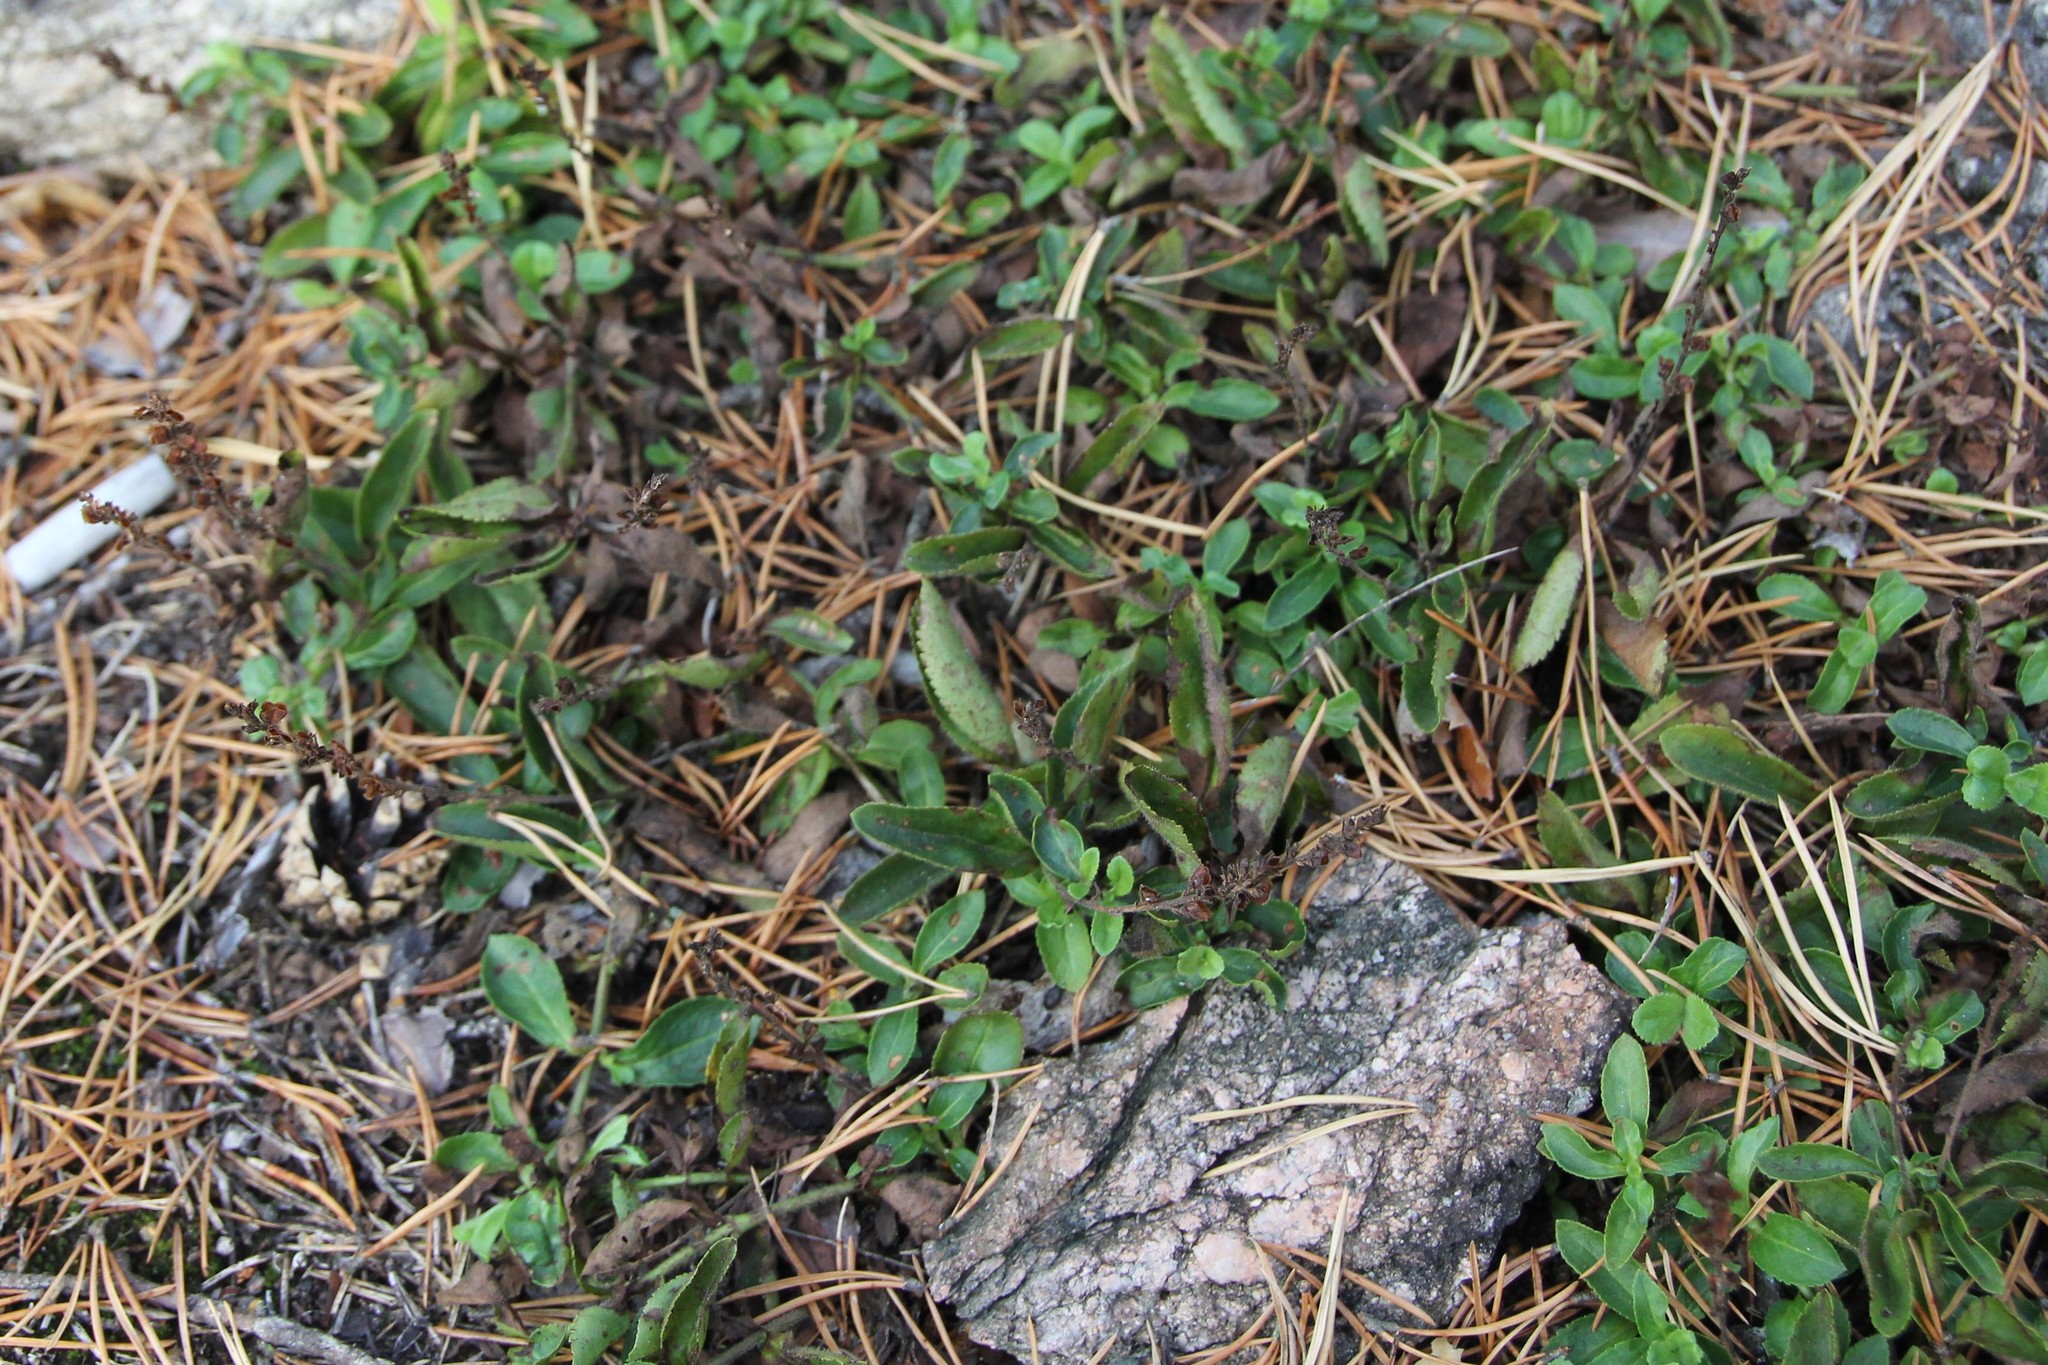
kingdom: Plantae
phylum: Tracheophyta
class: Magnoliopsida
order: Lamiales
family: Plantaginaceae
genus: Veronica
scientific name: Veronica officinalis
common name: Common speedwell
